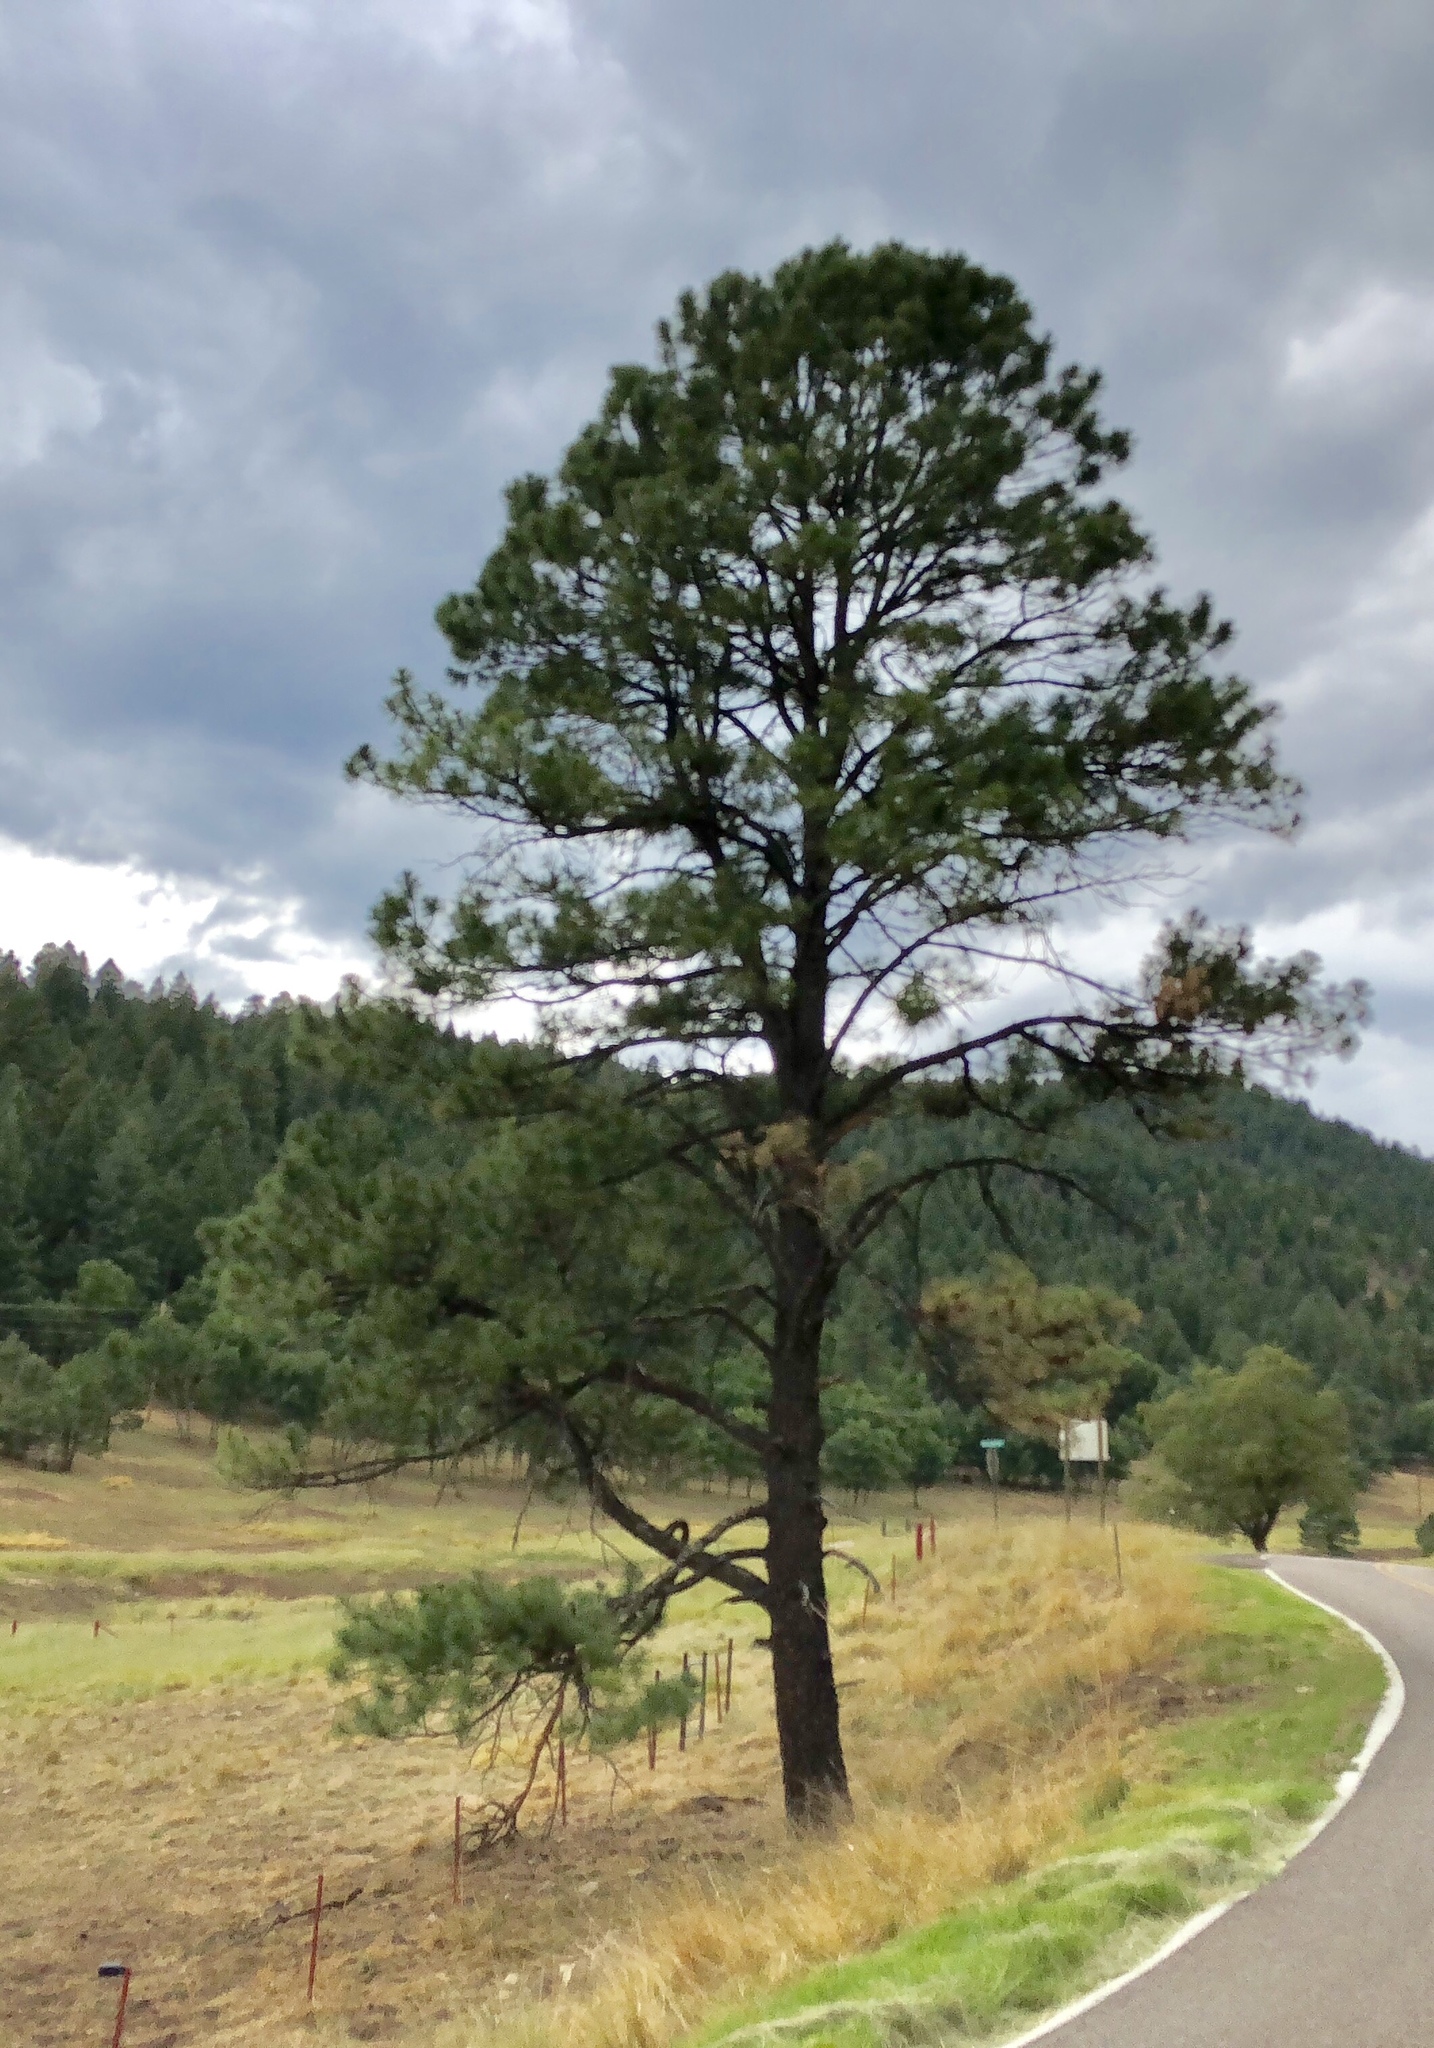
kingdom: Plantae
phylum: Tracheophyta
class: Pinopsida
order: Pinales
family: Pinaceae
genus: Pinus
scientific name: Pinus ponderosa
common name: Western yellow-pine
